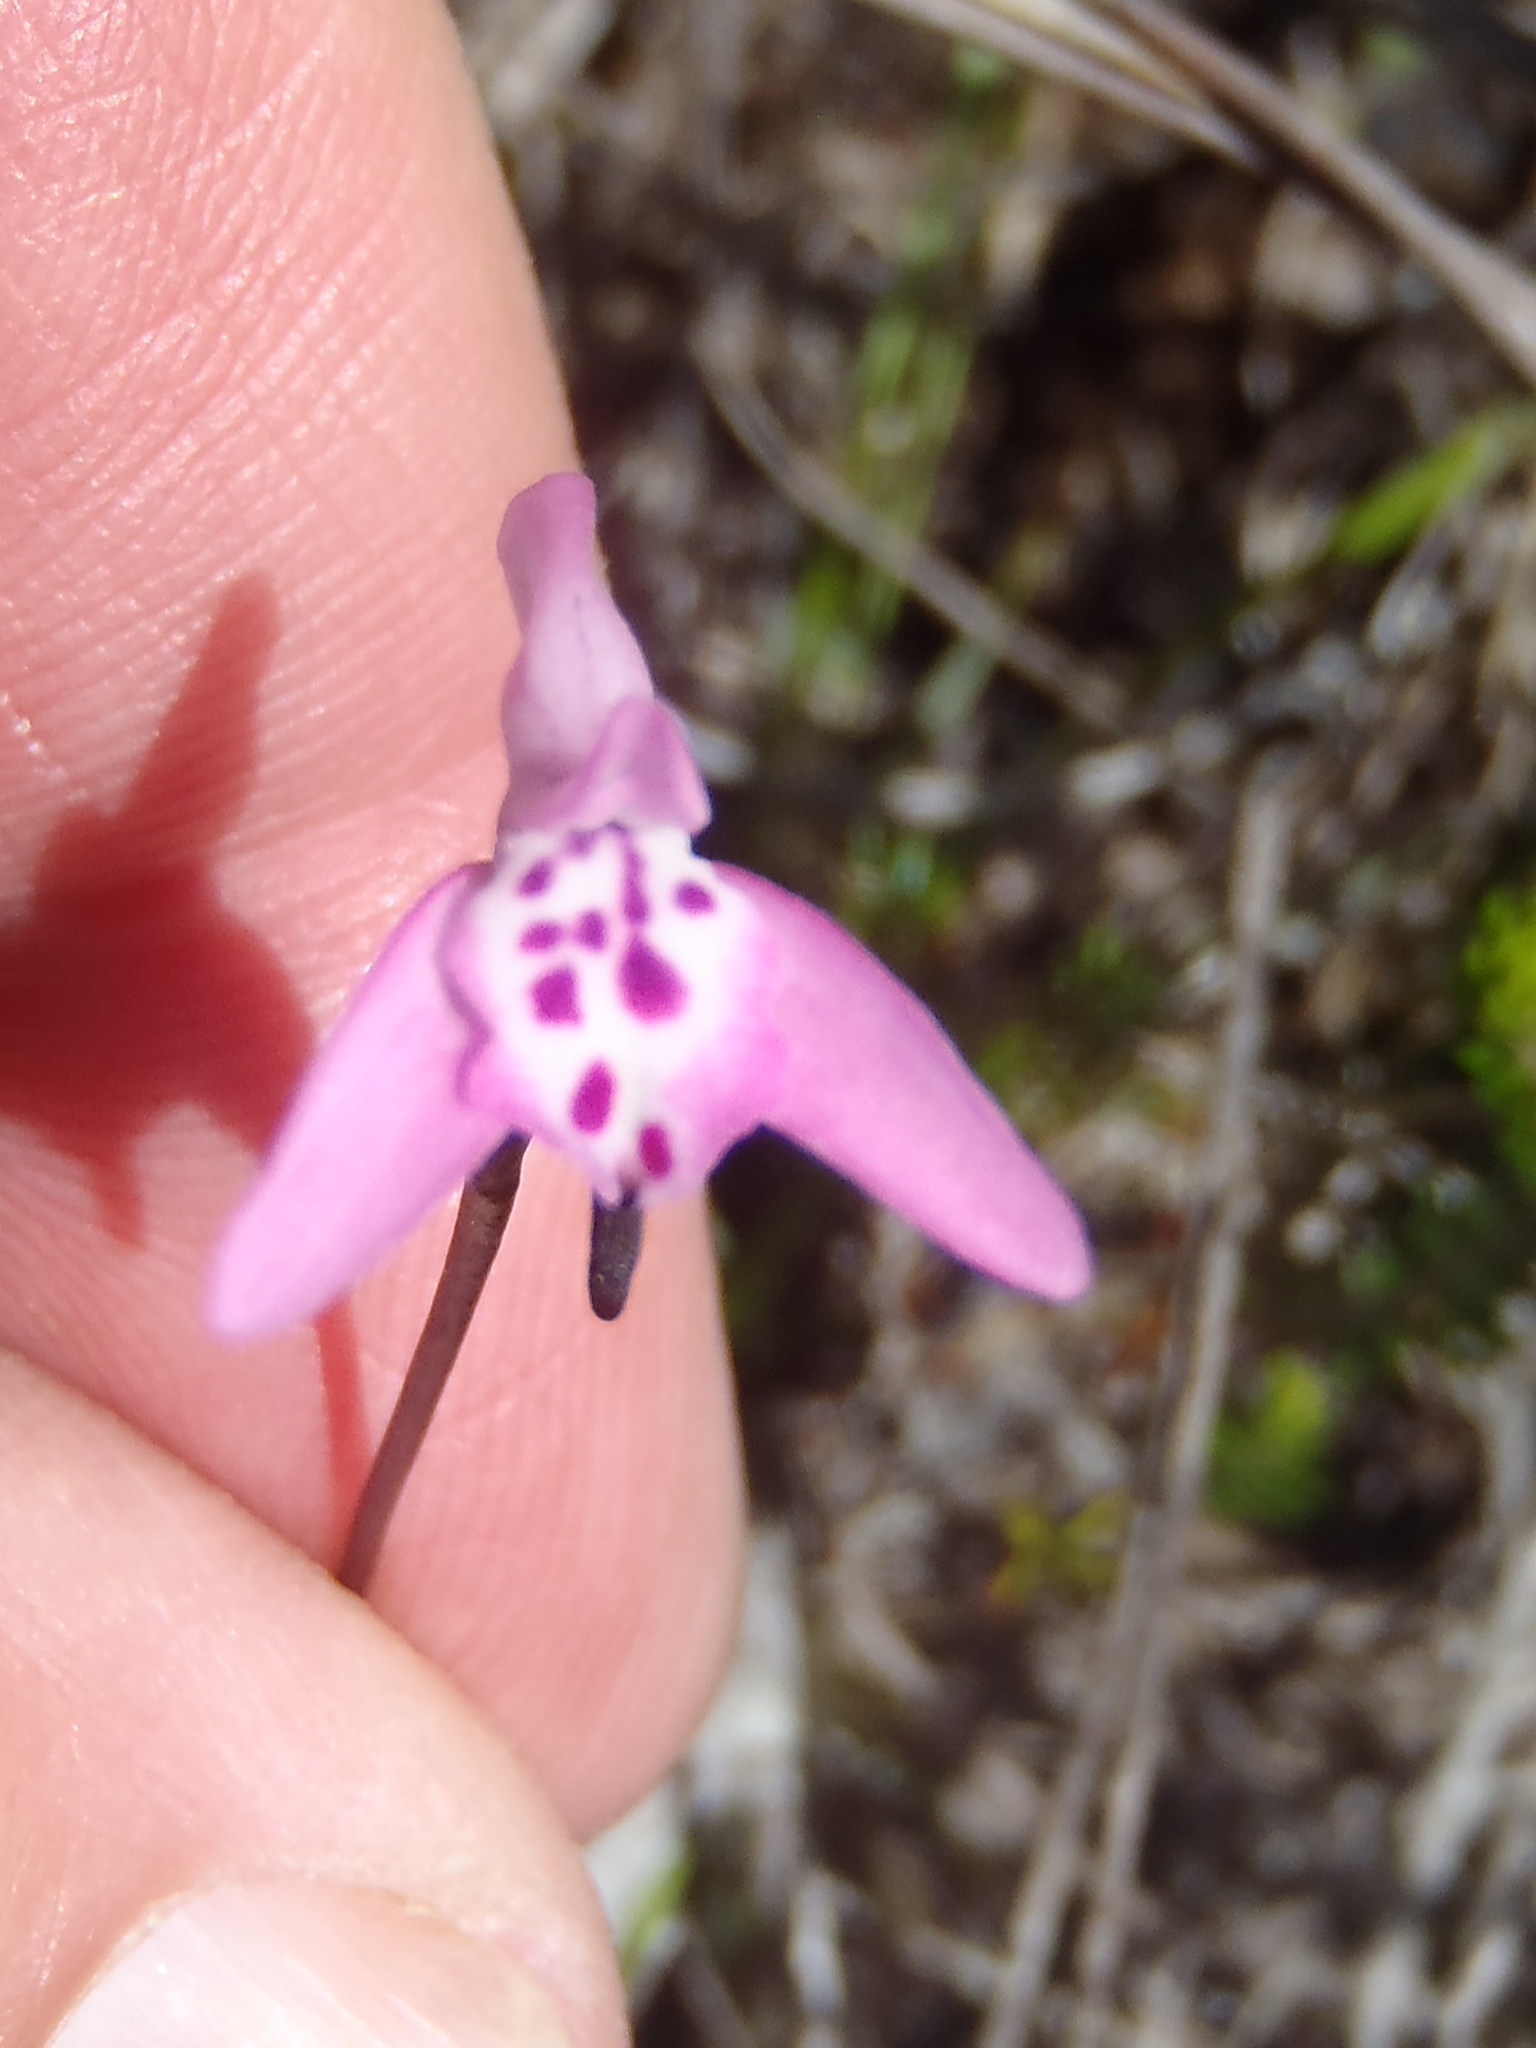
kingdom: Plantae
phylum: Tracheophyta
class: Liliopsida
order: Asparagales
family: Orchidaceae
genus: Disa
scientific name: Disa inflexa
